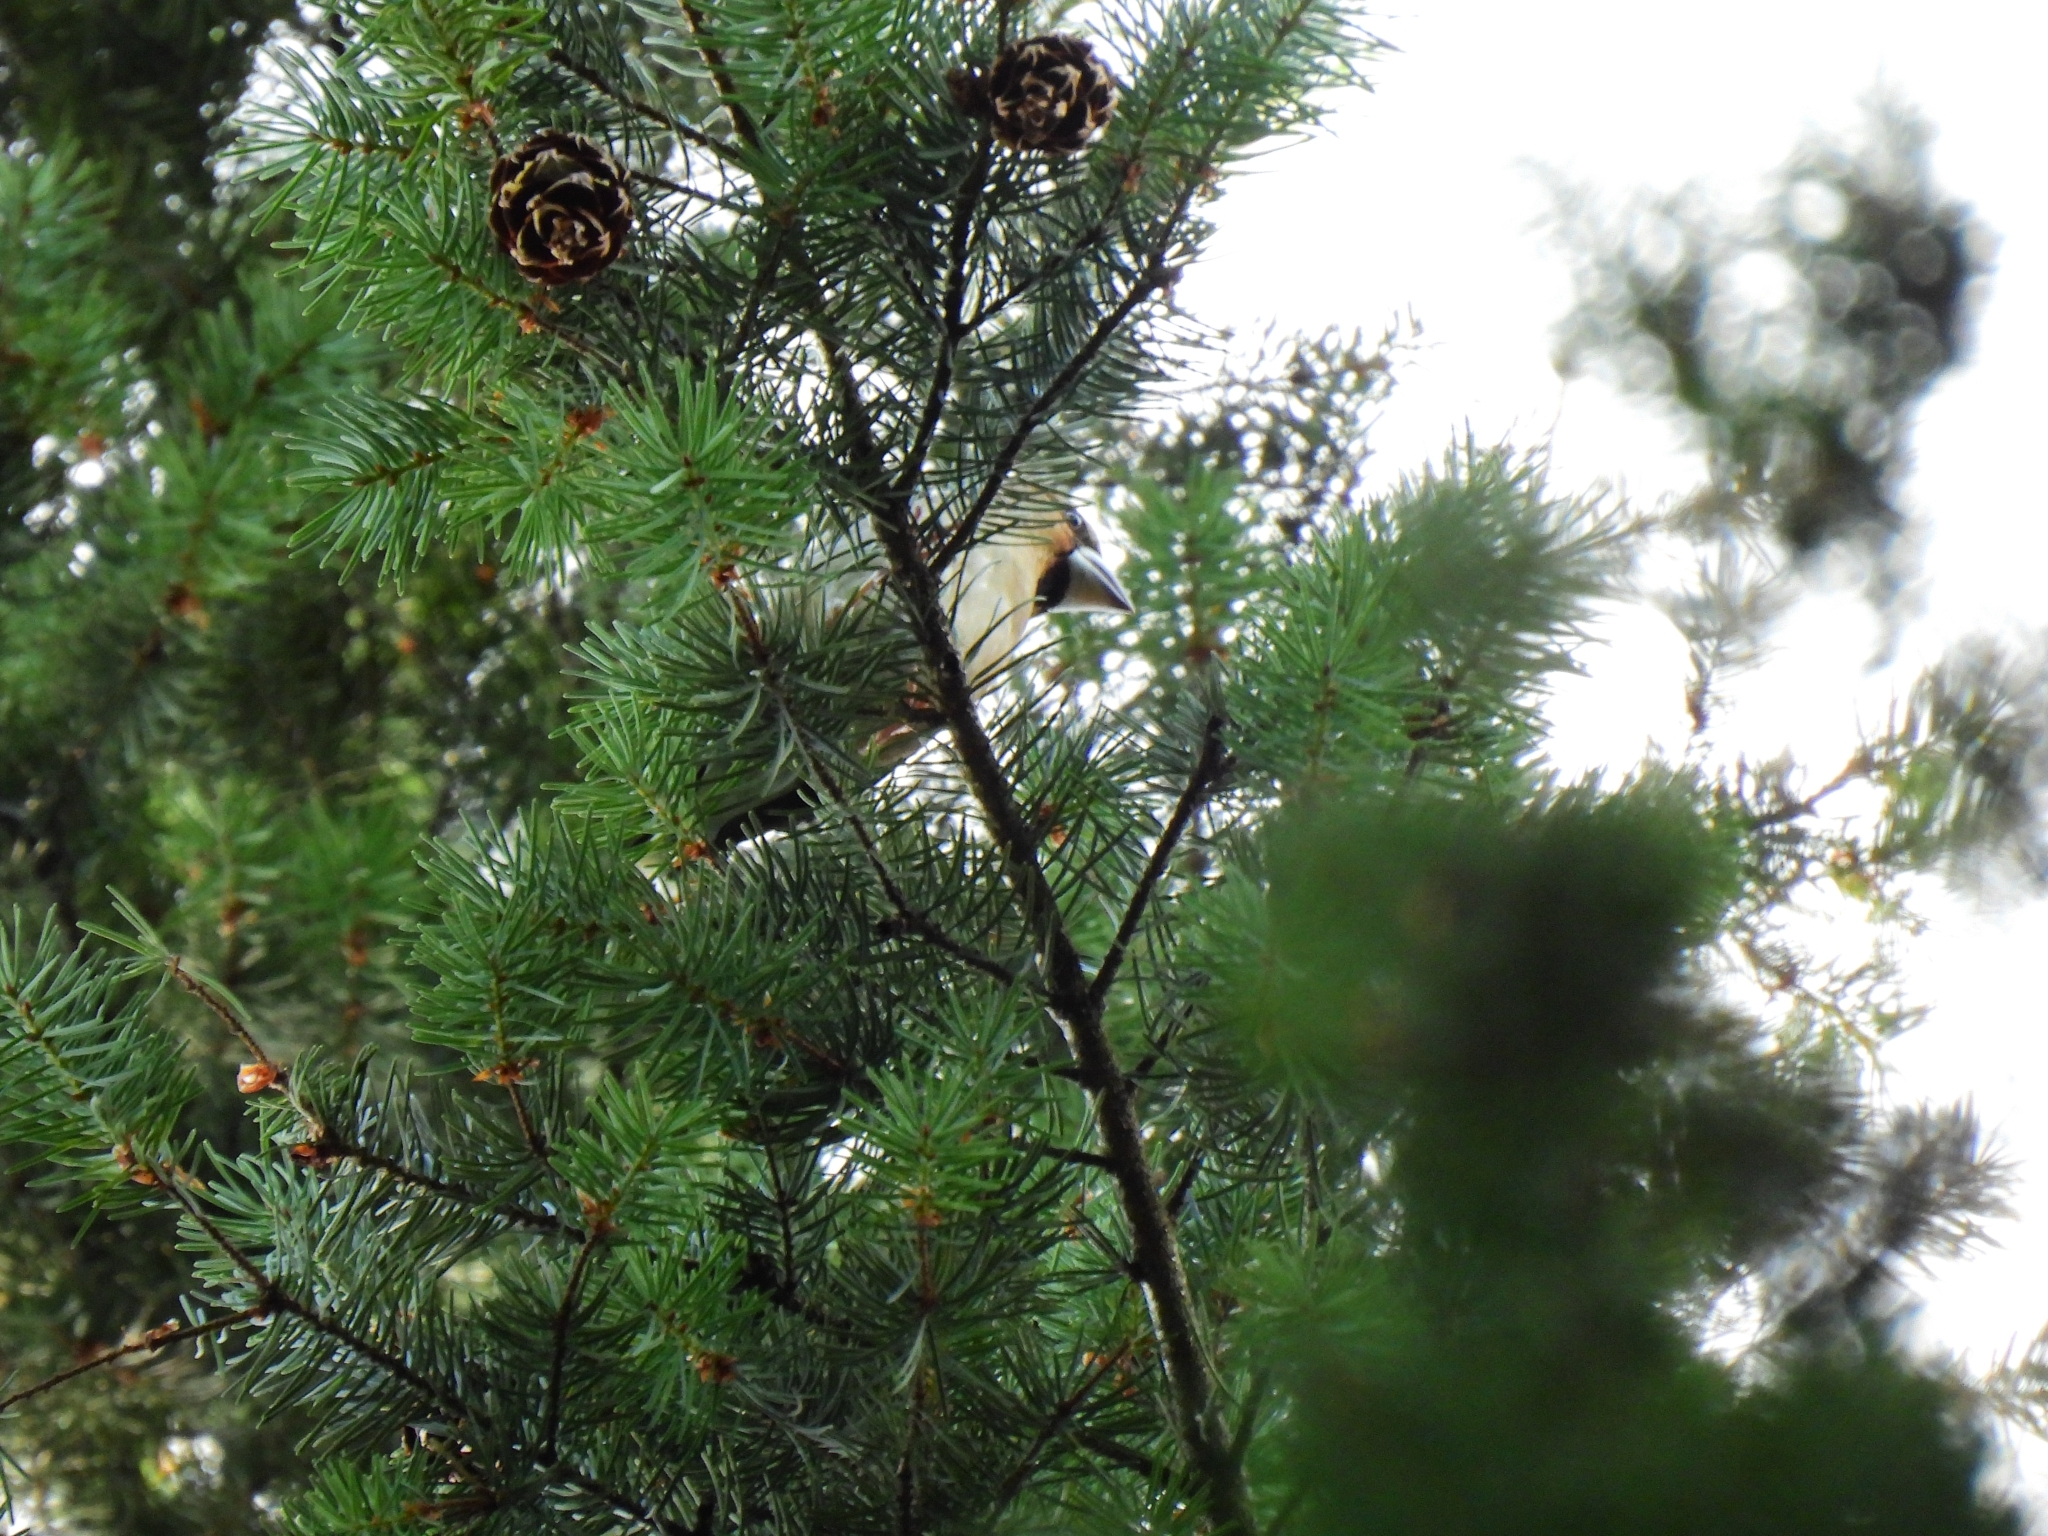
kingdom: Animalia
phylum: Chordata
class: Aves
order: Passeriformes
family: Fringillidae
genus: Coccothraustes
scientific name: Coccothraustes coccothraustes
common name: Hawfinch
